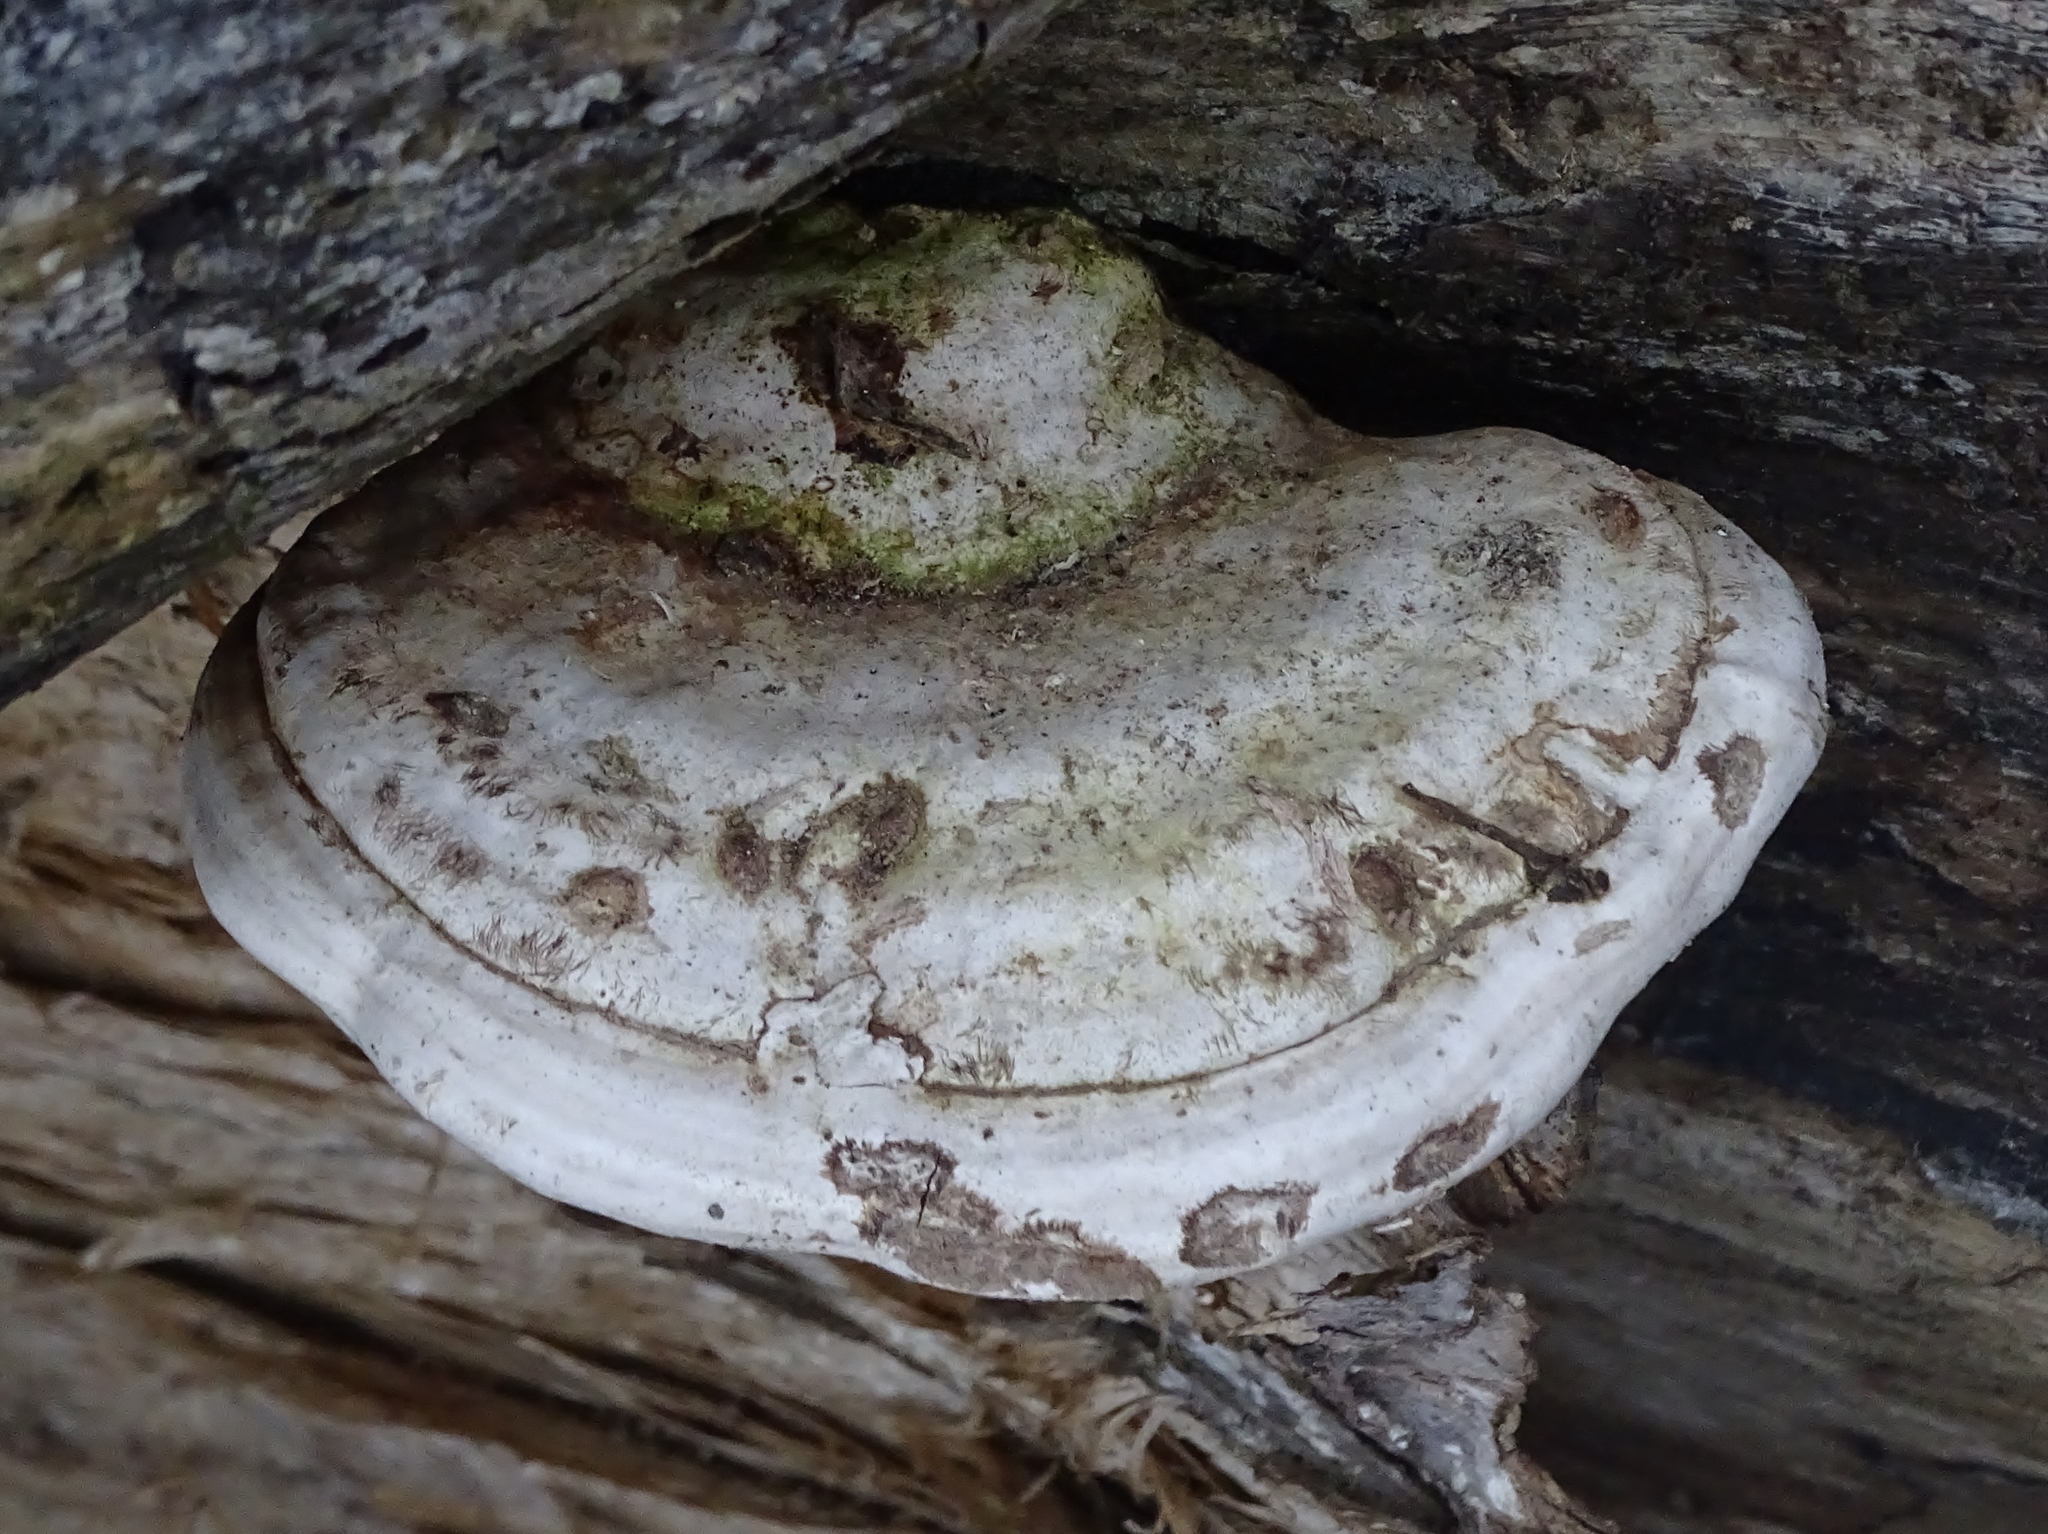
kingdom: Fungi
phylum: Basidiomycota
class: Agaricomycetes
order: Polyporales
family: Polyporaceae
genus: Ganoderma
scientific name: Ganoderma applanatum
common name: Artist's bracket
